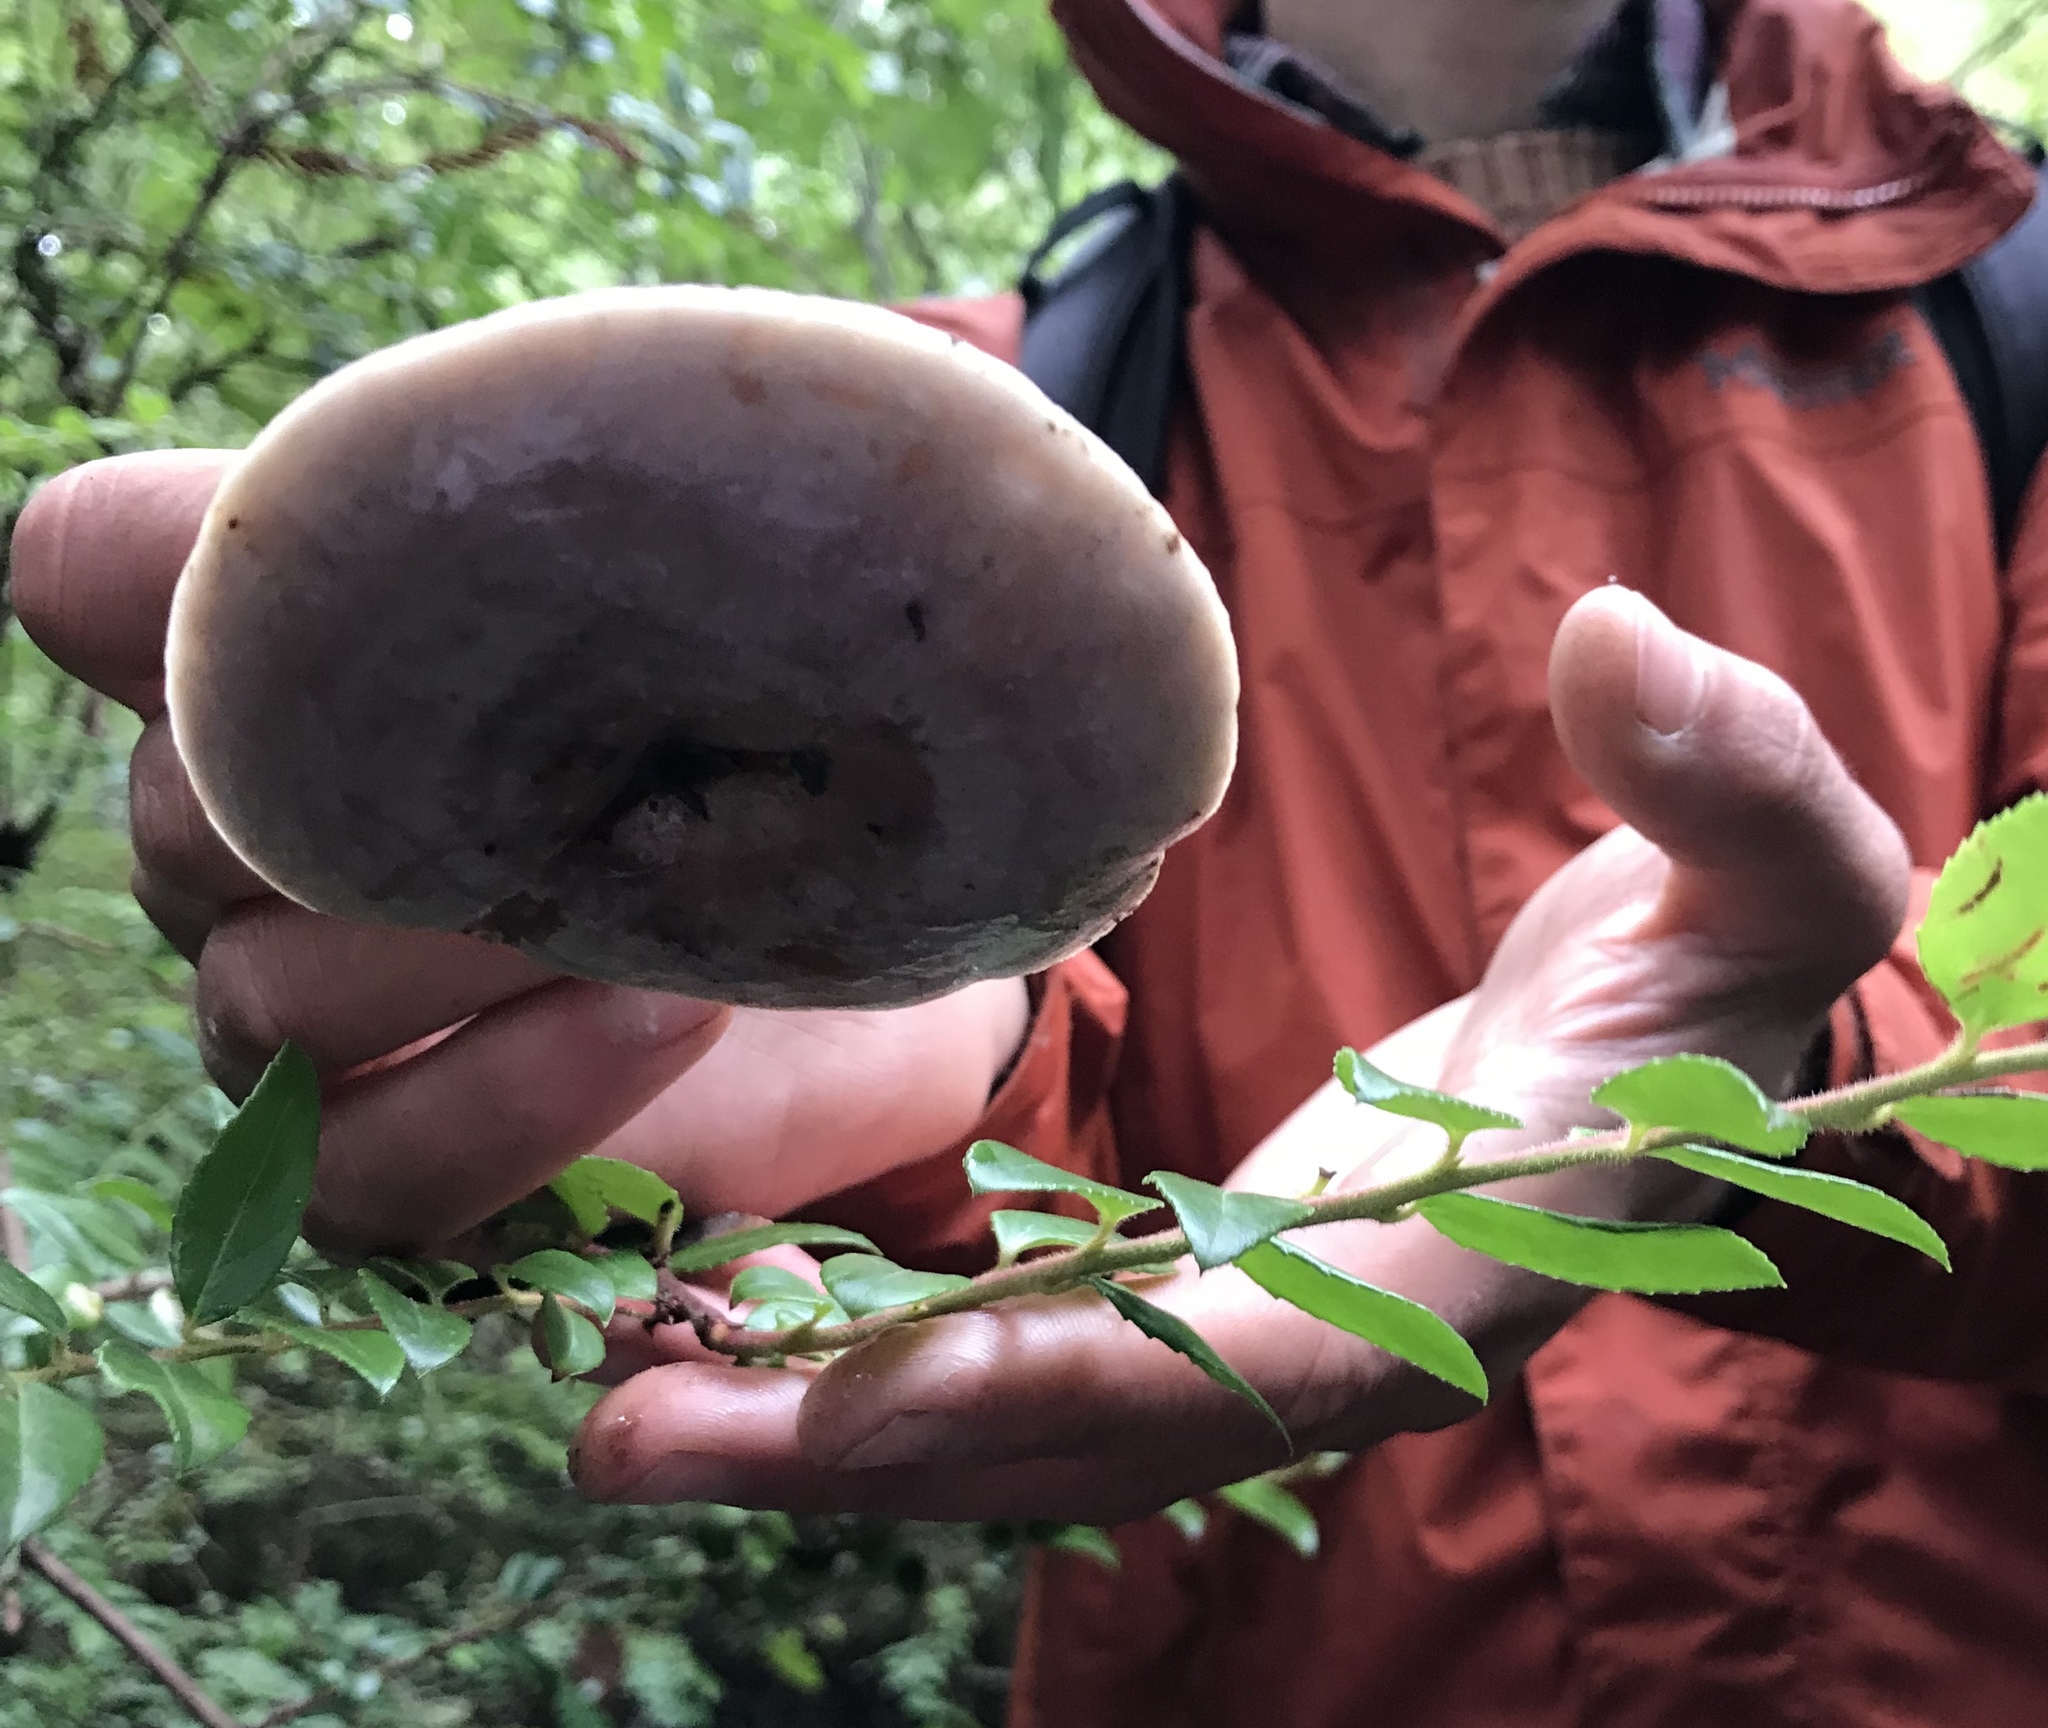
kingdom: Fungi
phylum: Basidiomycota
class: Agaricomycetes
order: Russulales
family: Russulaceae
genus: Lactarius
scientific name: Lactarius californiensis
